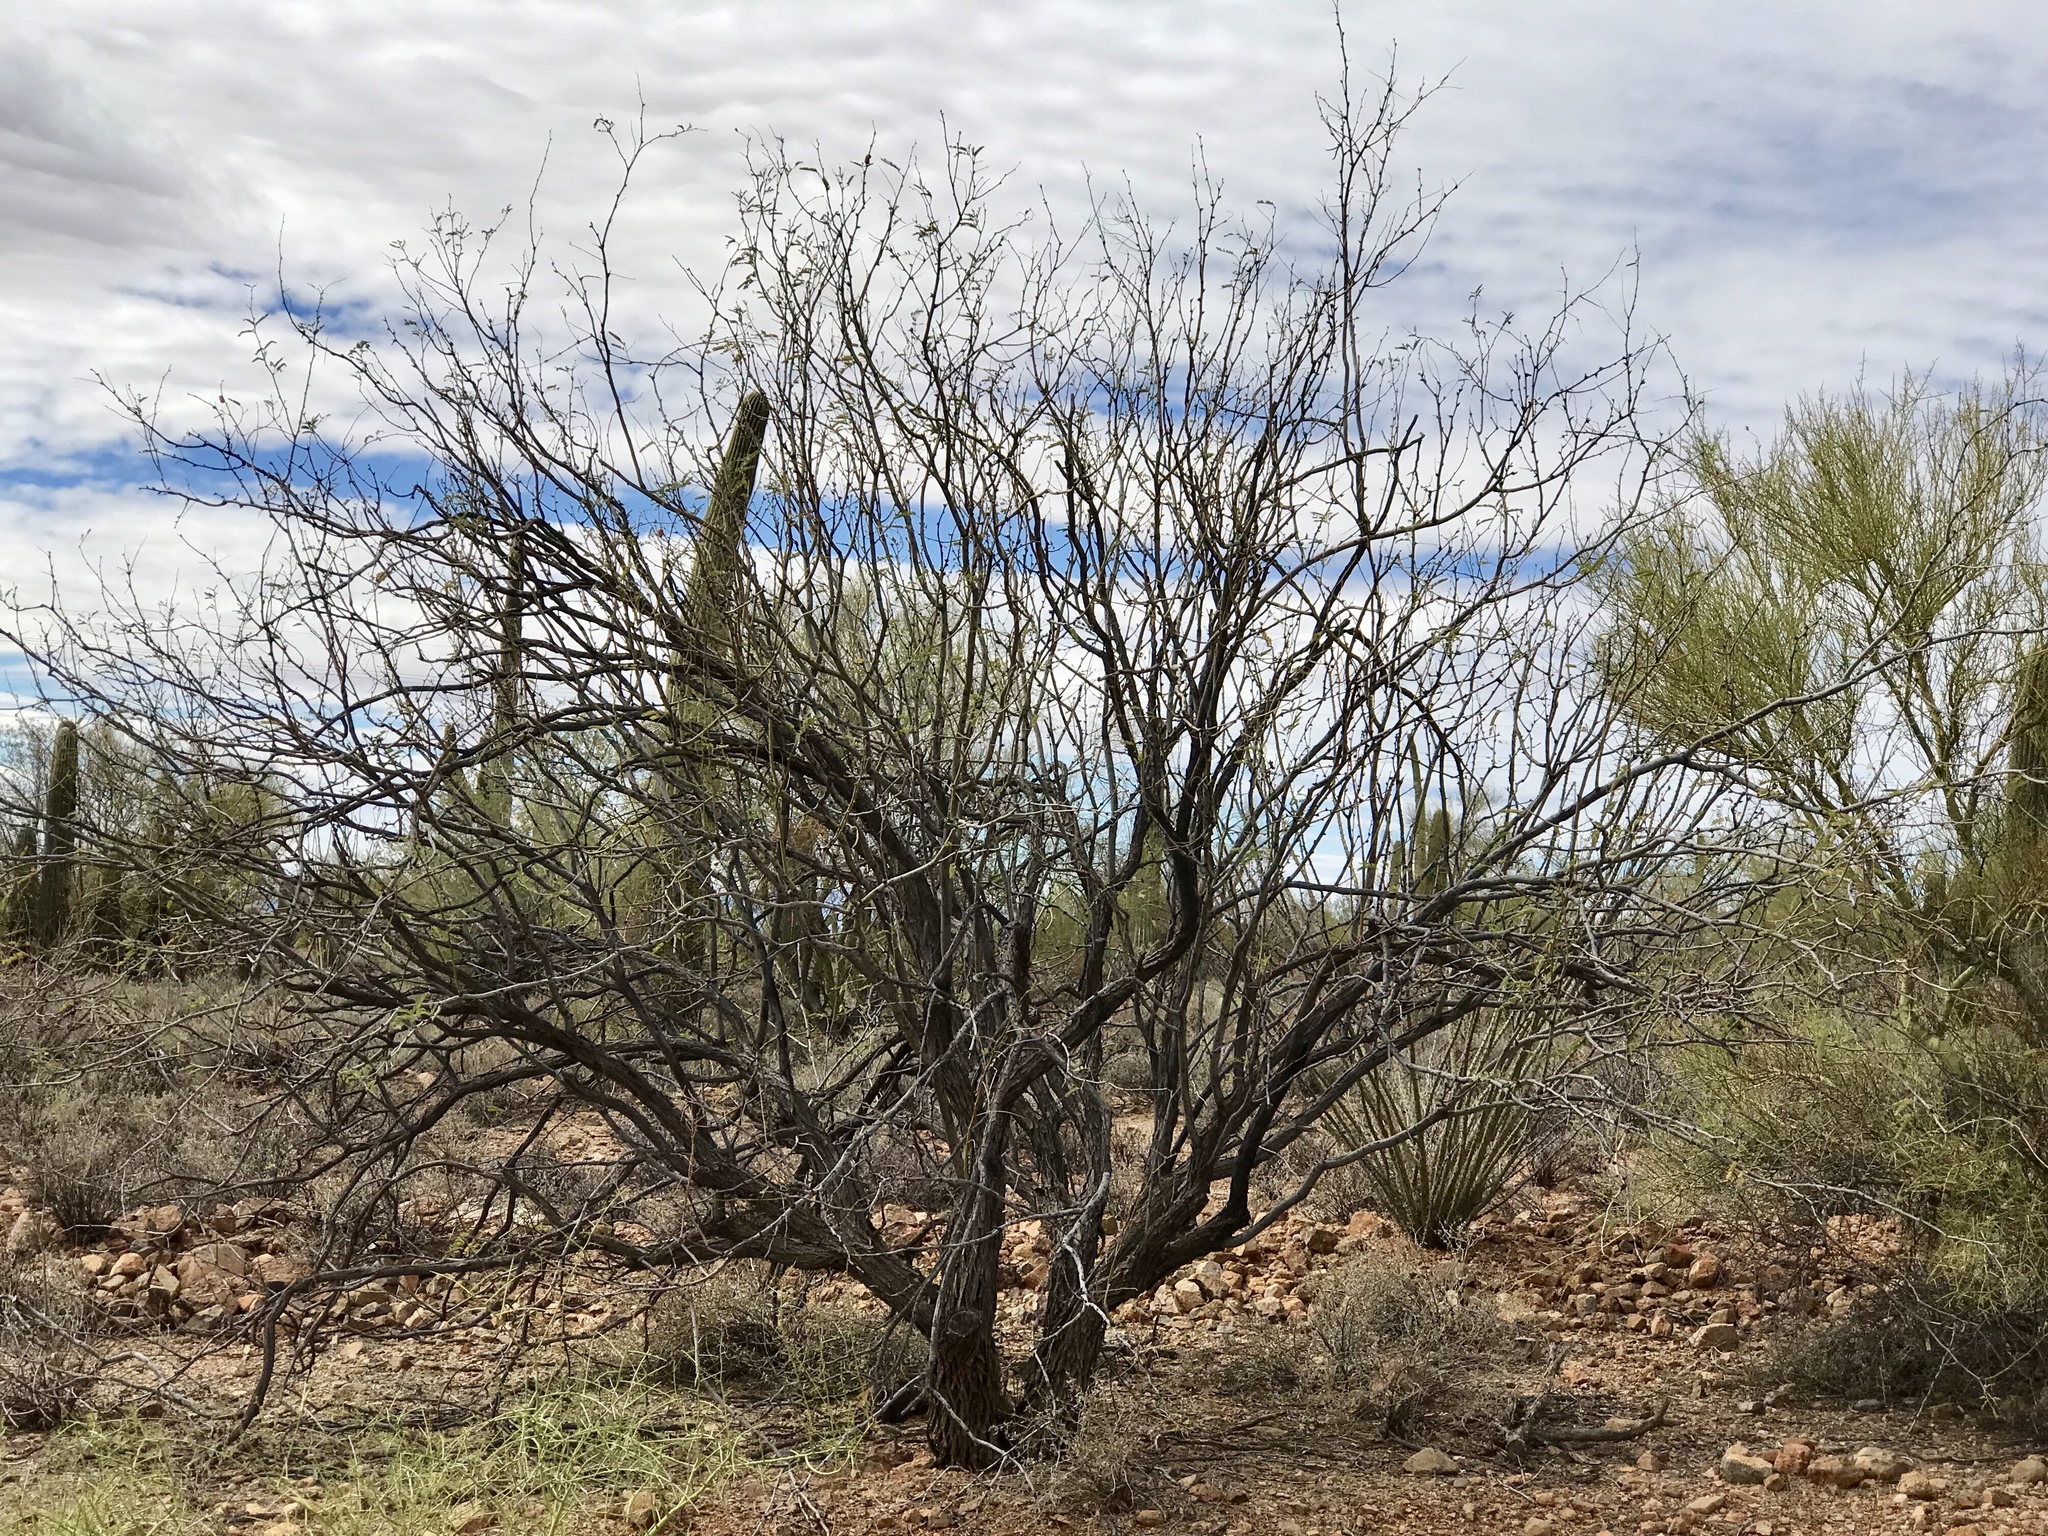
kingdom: Plantae
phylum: Tracheophyta
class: Magnoliopsida
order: Fabales
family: Fabaceae
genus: Prosopis
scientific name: Prosopis velutina
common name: Velvet mesquite
